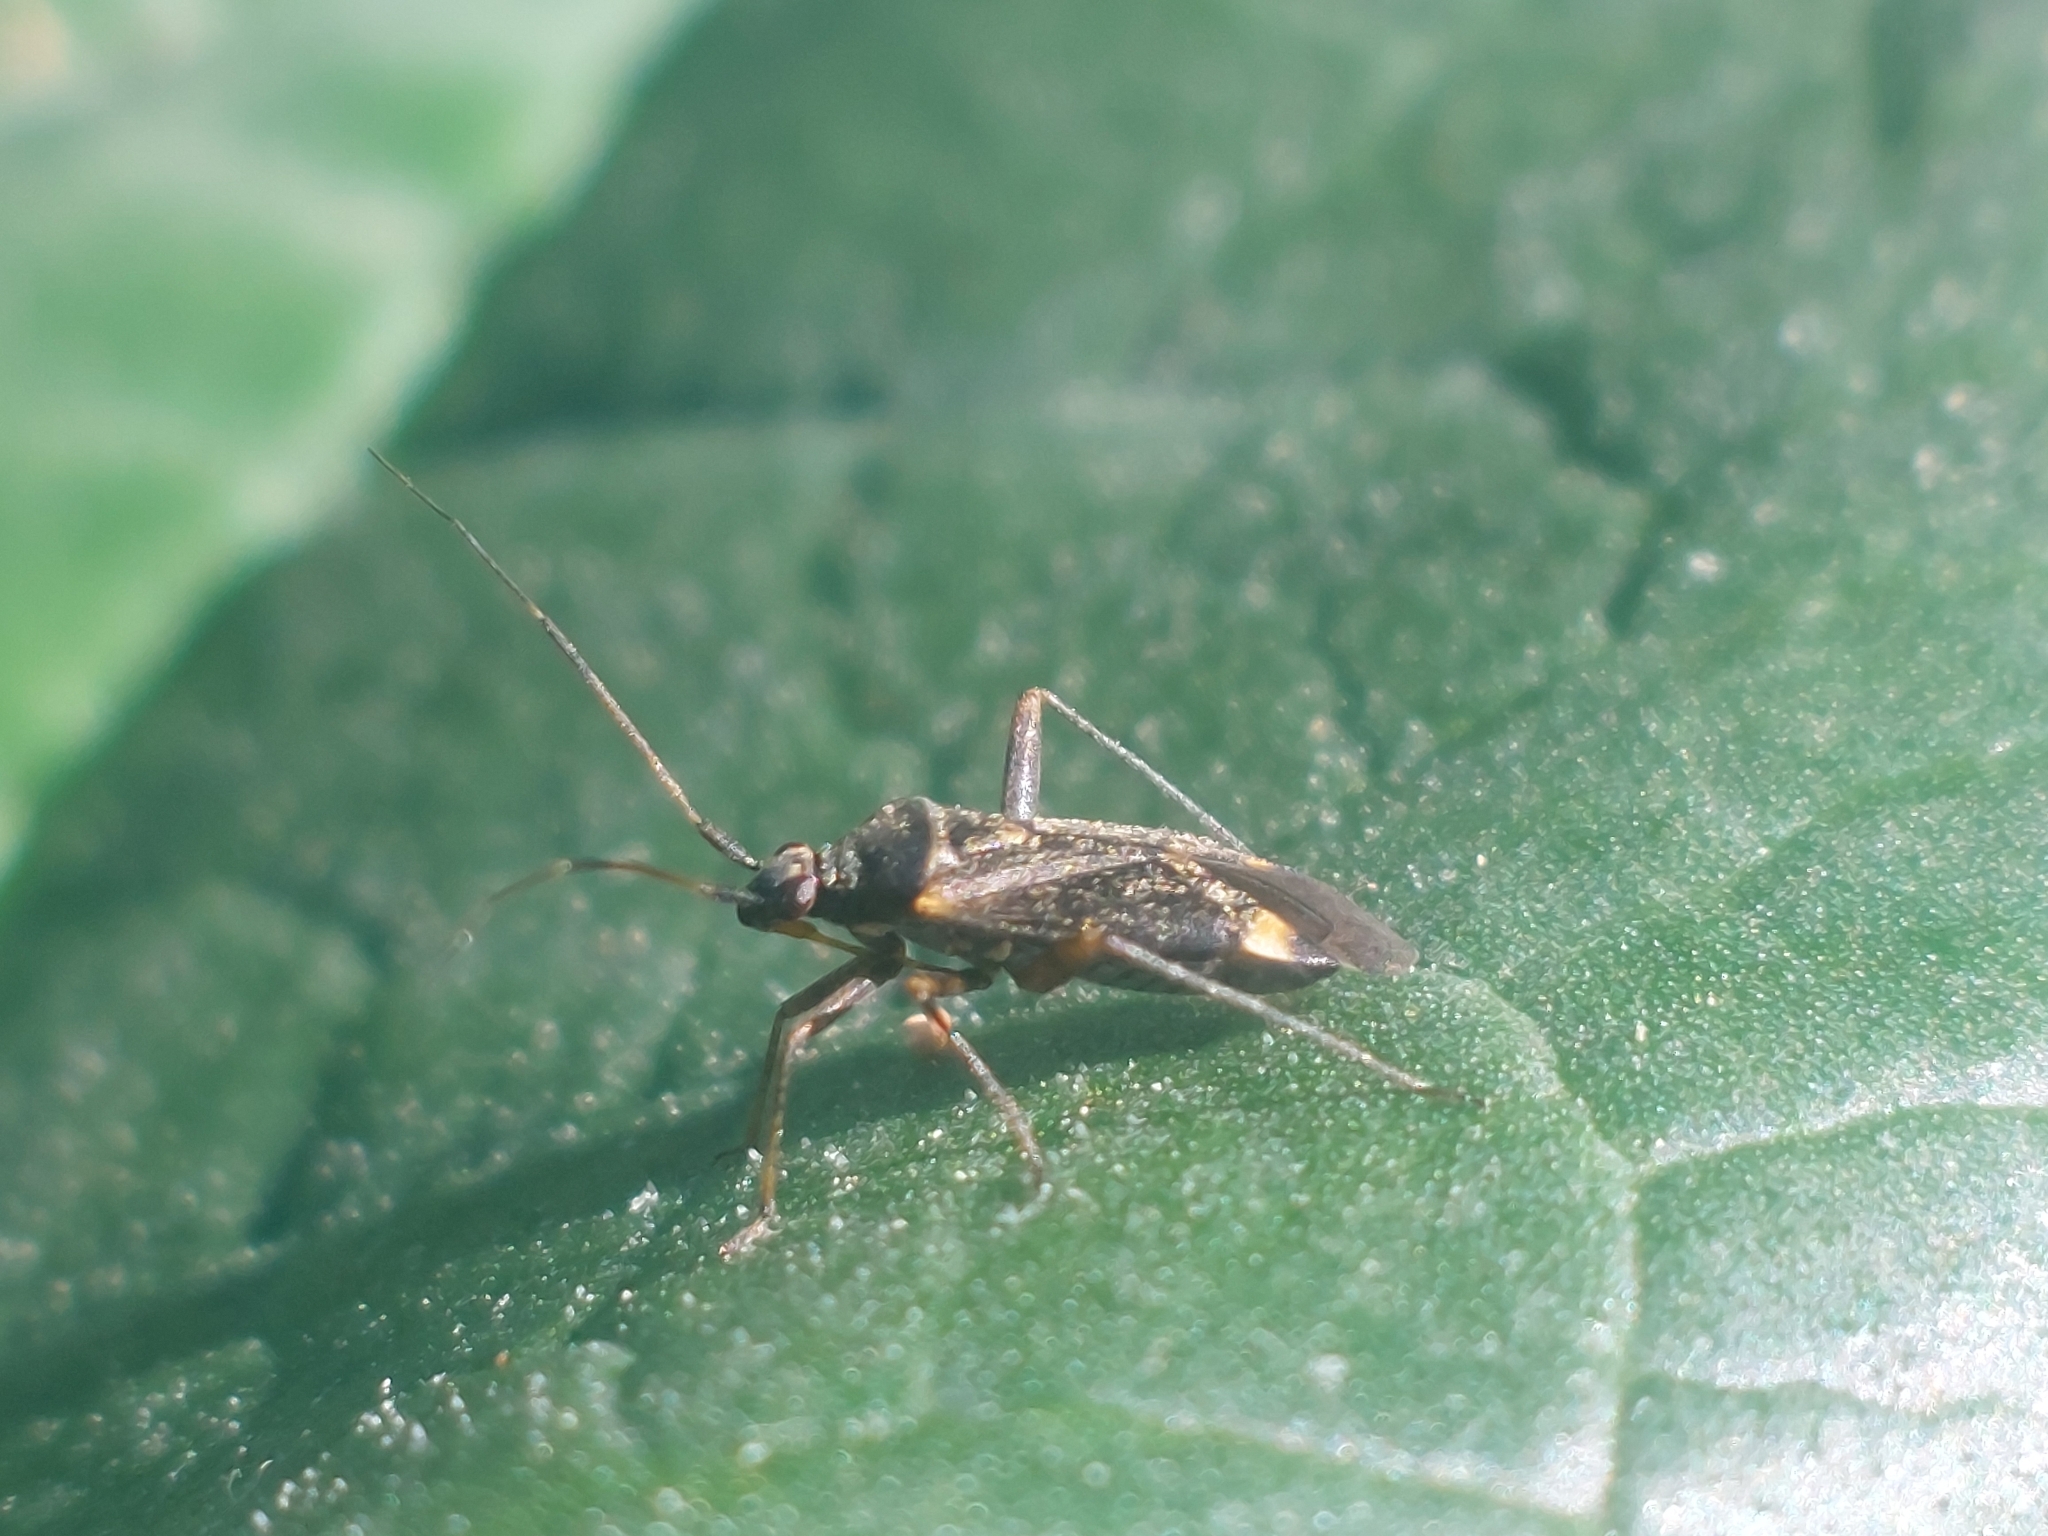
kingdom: Animalia
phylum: Arthropoda
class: Insecta
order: Hemiptera
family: Miridae
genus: Closterotomus
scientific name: Closterotomus fulvomaculatus
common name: Spotted plant bug
